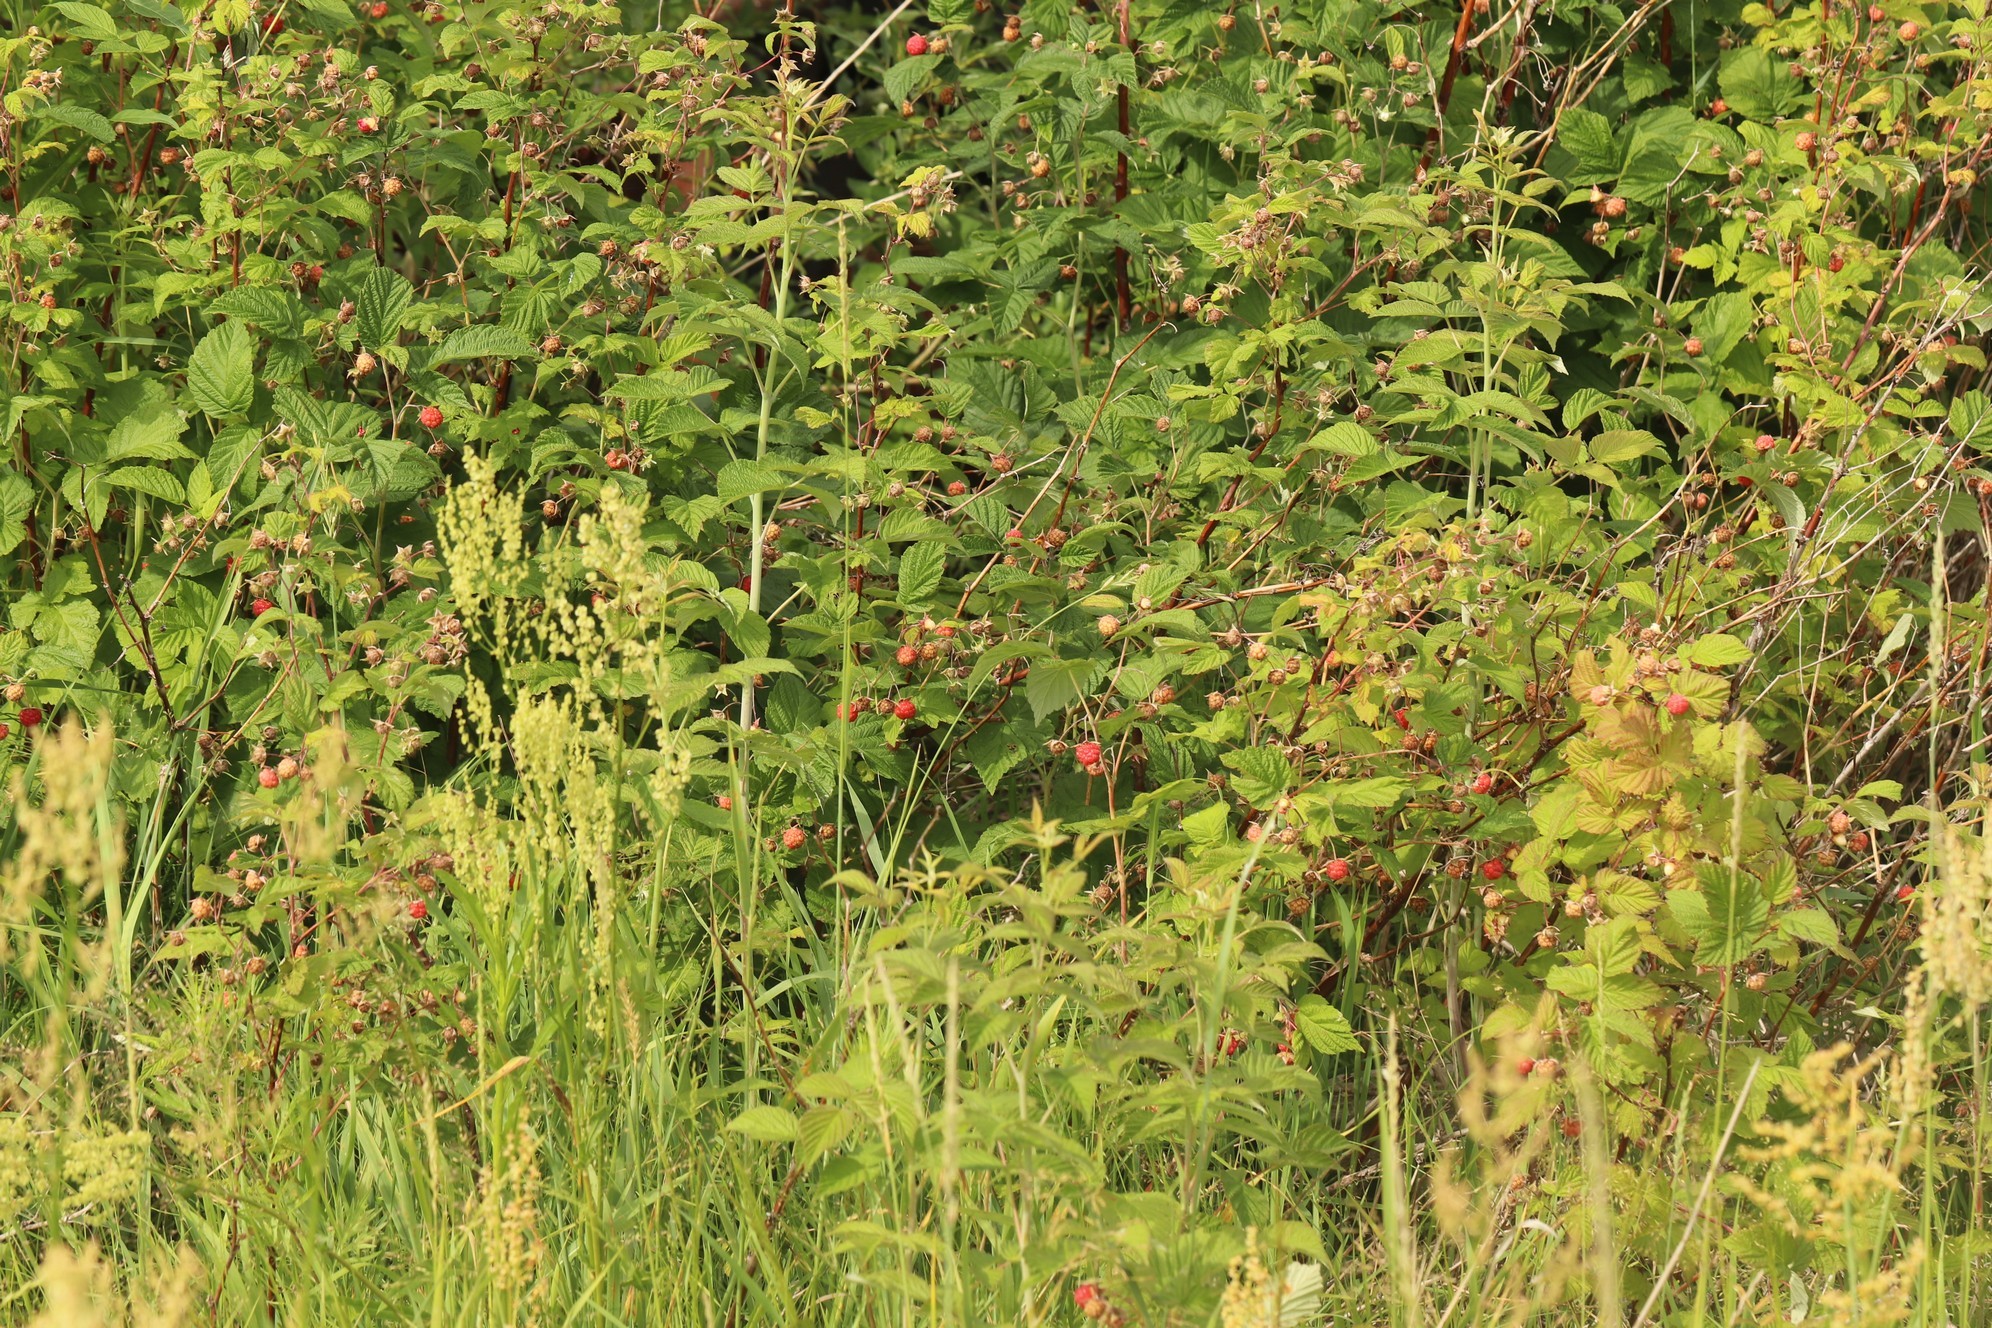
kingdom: Plantae
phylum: Tracheophyta
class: Magnoliopsida
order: Rosales
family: Rosaceae
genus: Rubus
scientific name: Rubus idaeus
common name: Raspberry
